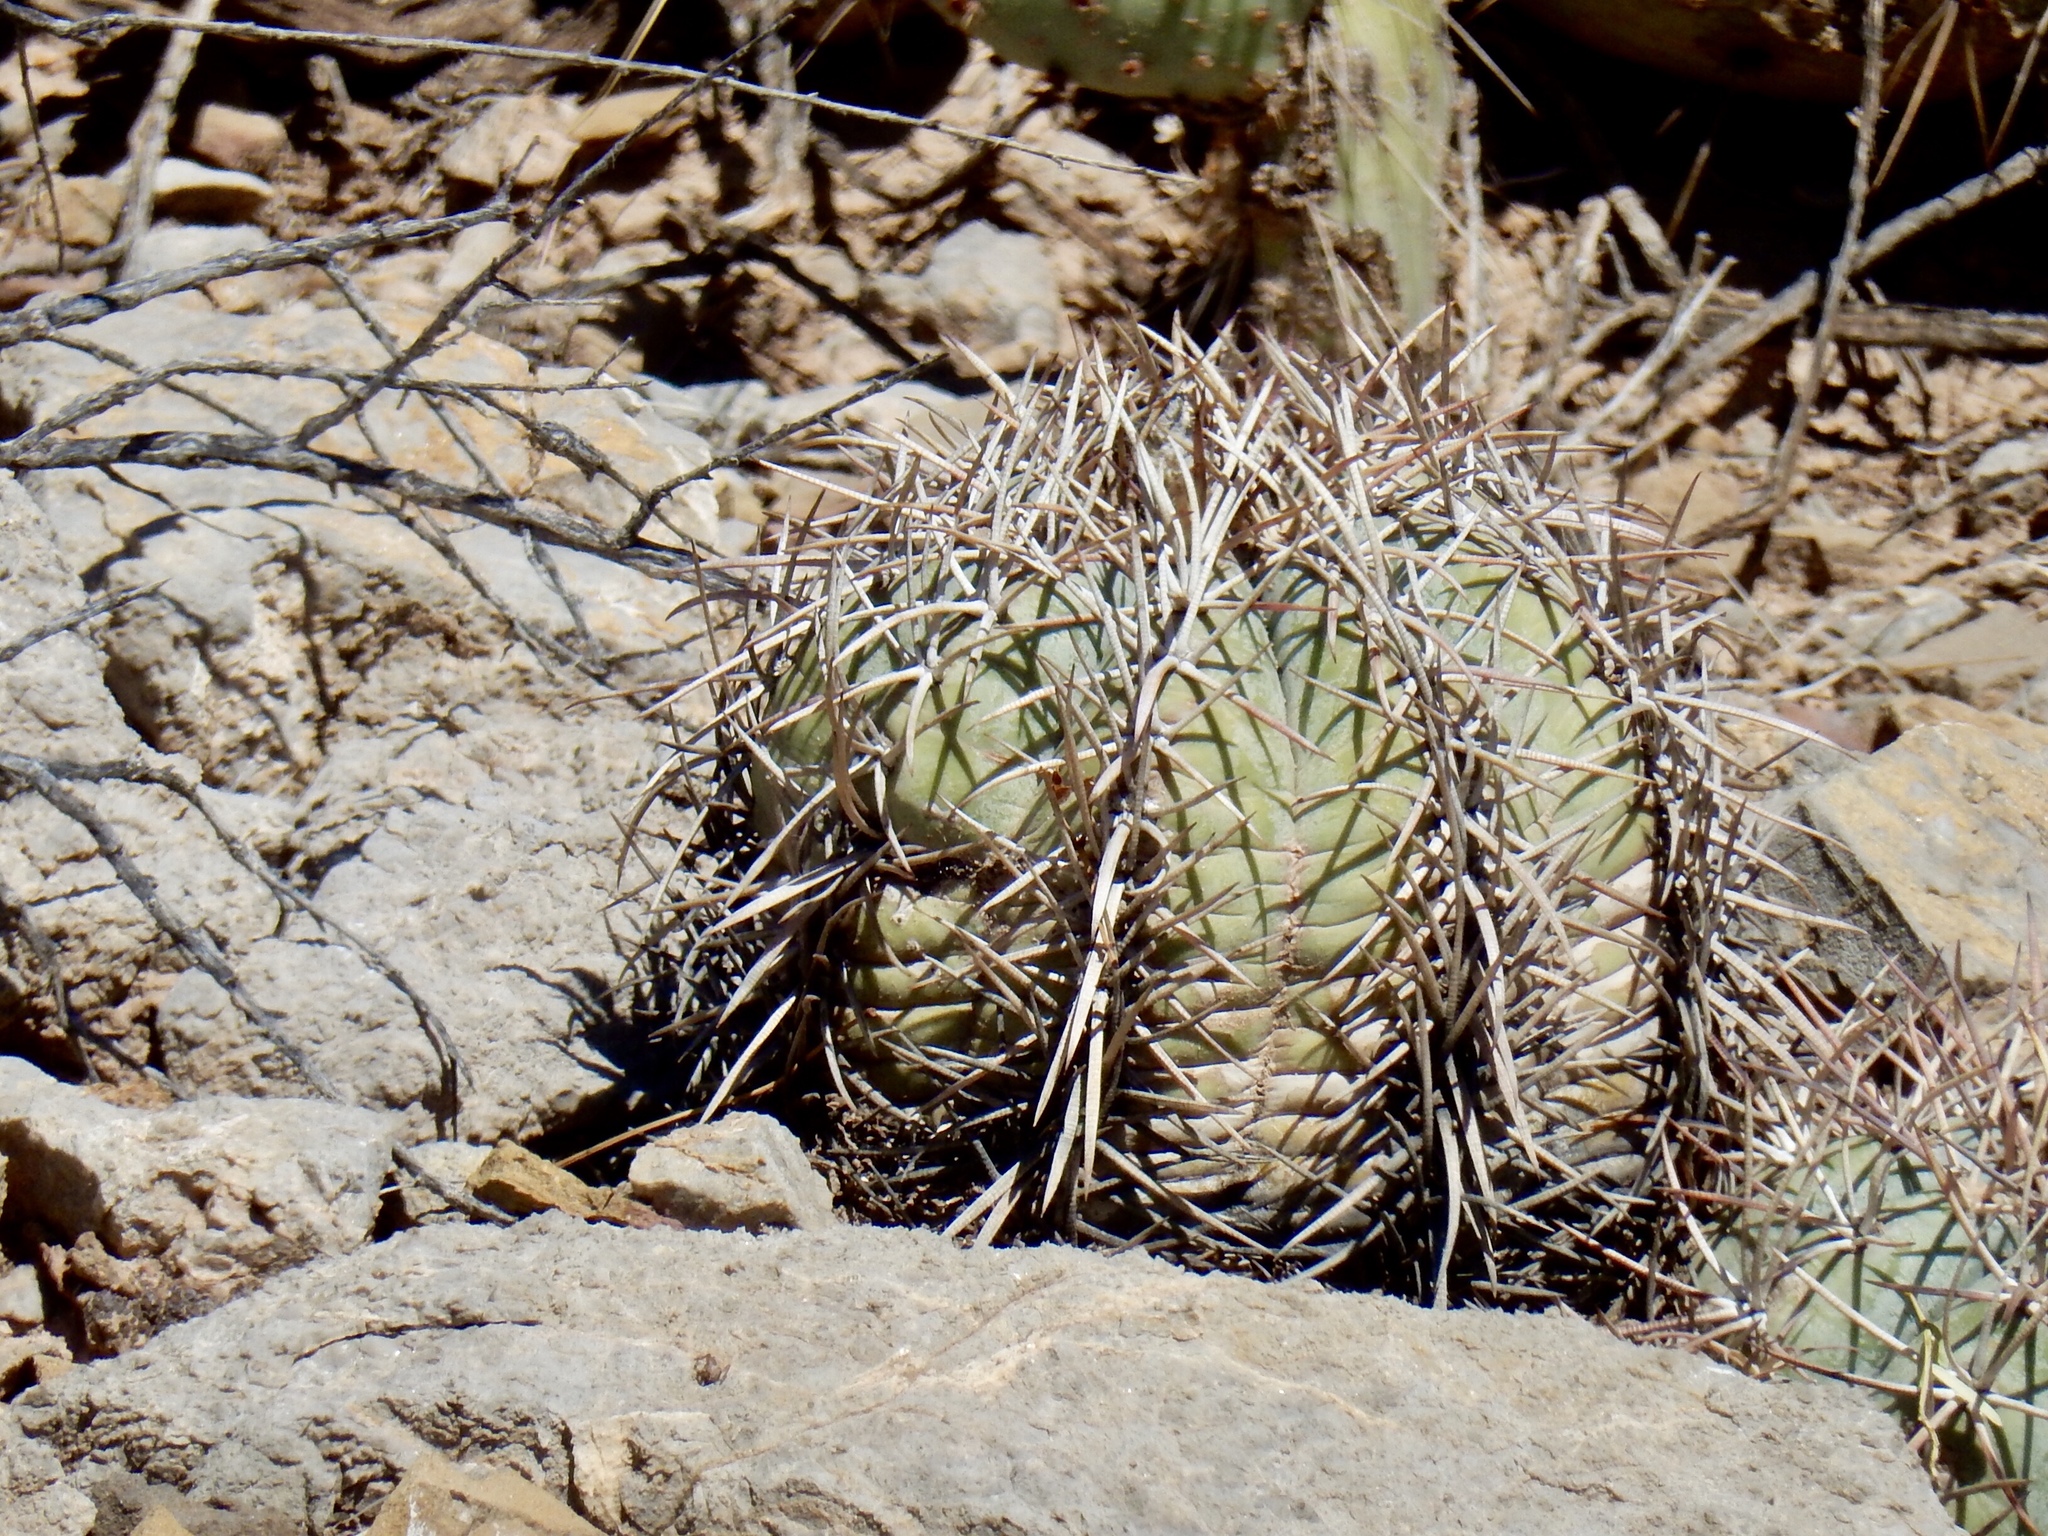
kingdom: Plantae
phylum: Tracheophyta
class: Magnoliopsida
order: Caryophyllales
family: Cactaceae
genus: Echinocactus
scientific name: Echinocactus horizonthalonius
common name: Devilshead
